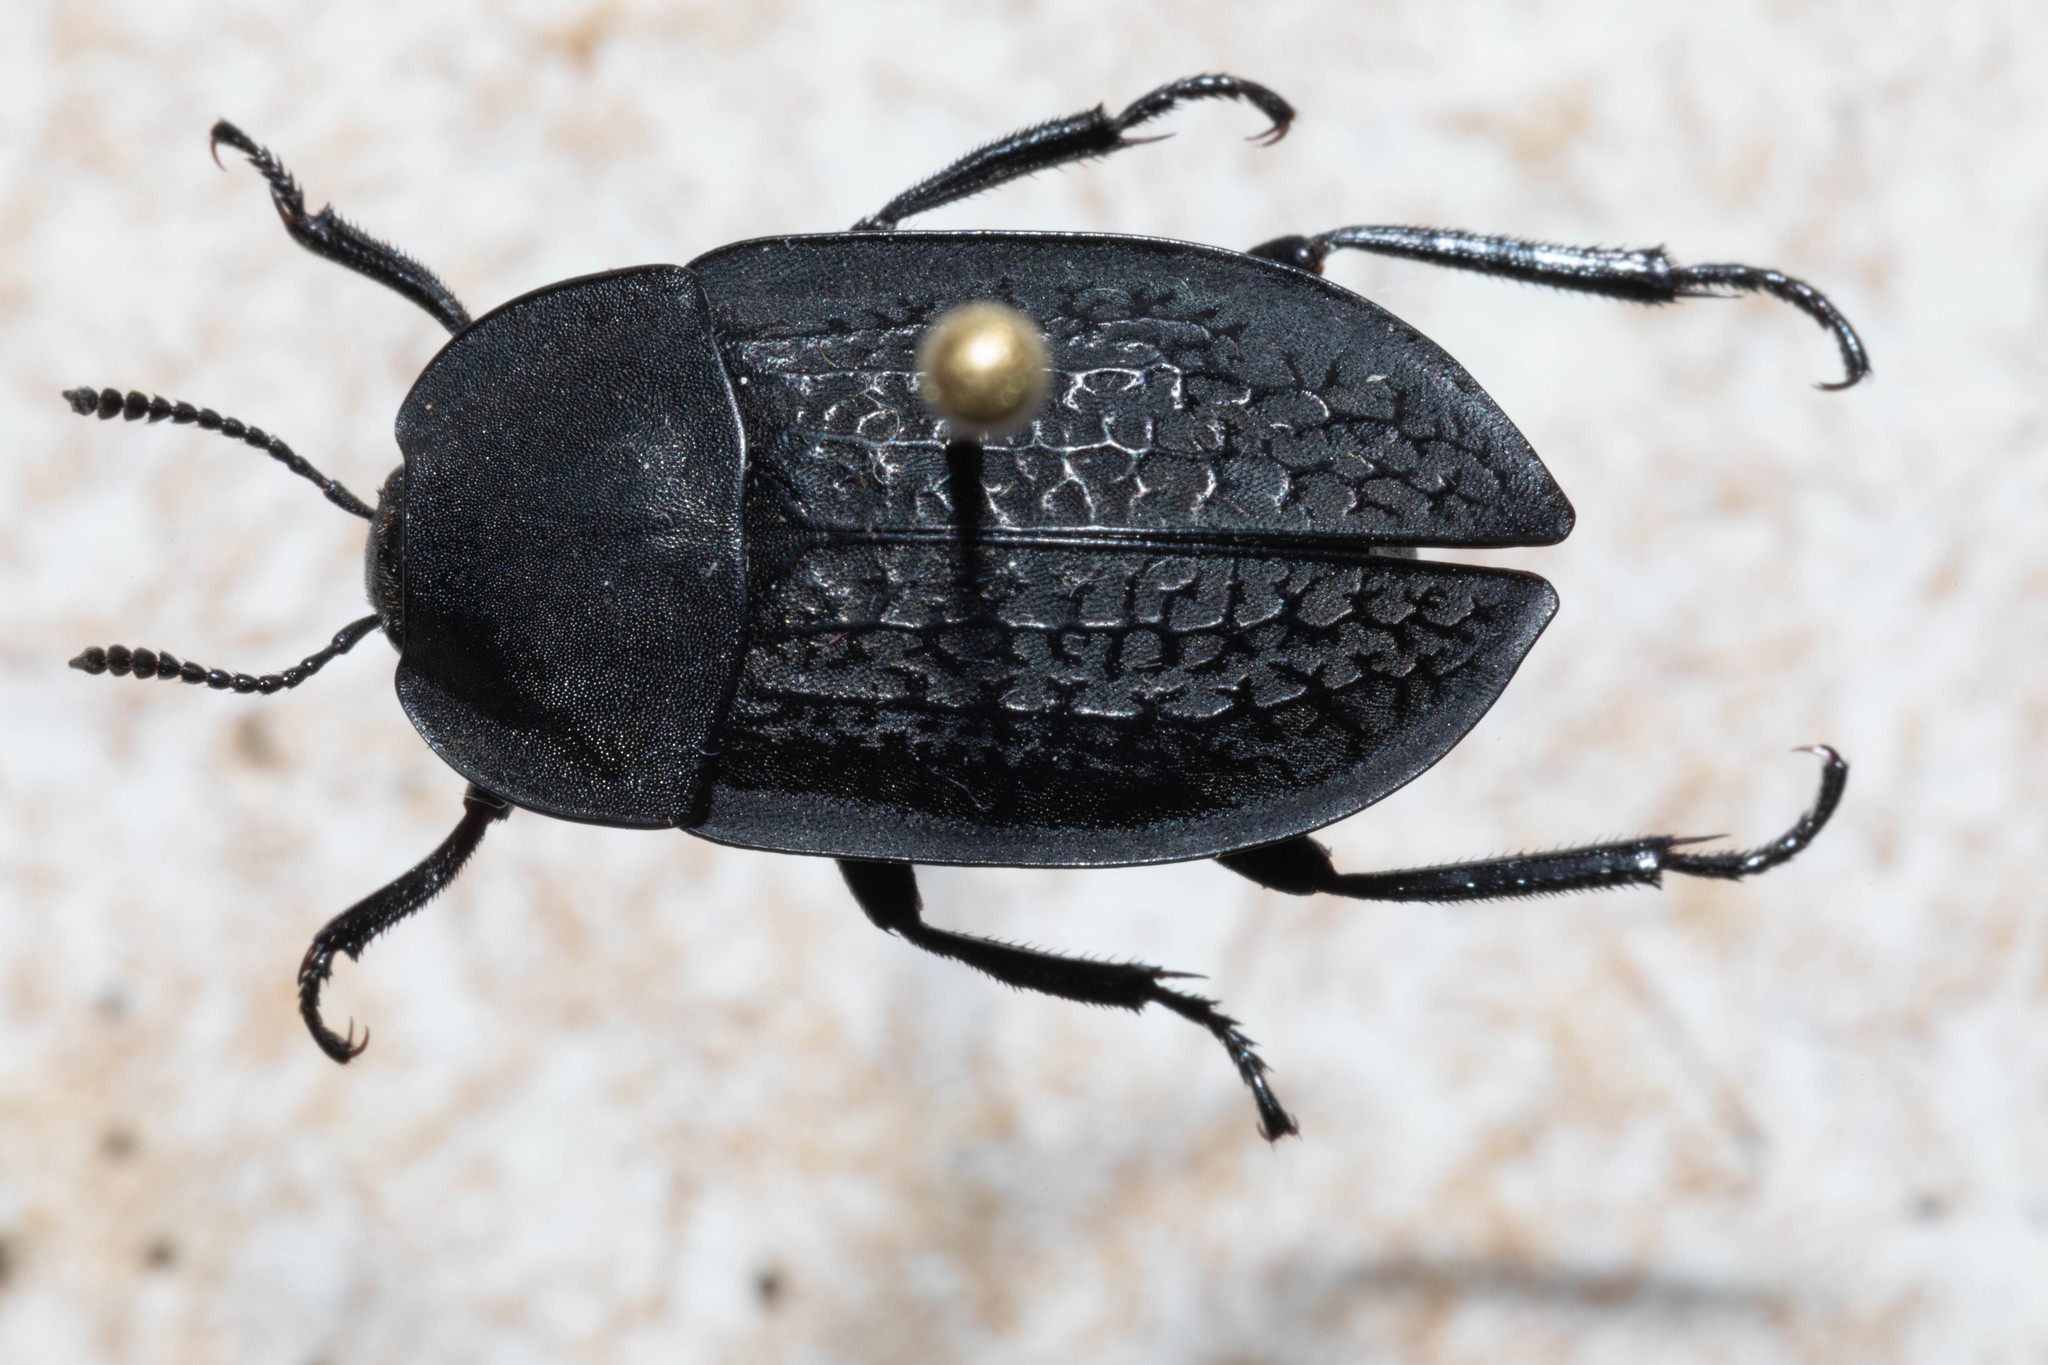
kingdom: Animalia
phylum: Arthropoda
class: Insecta
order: Coleoptera
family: Staphylinidae
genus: Heterosilpha
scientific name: Heterosilpha ramosa
